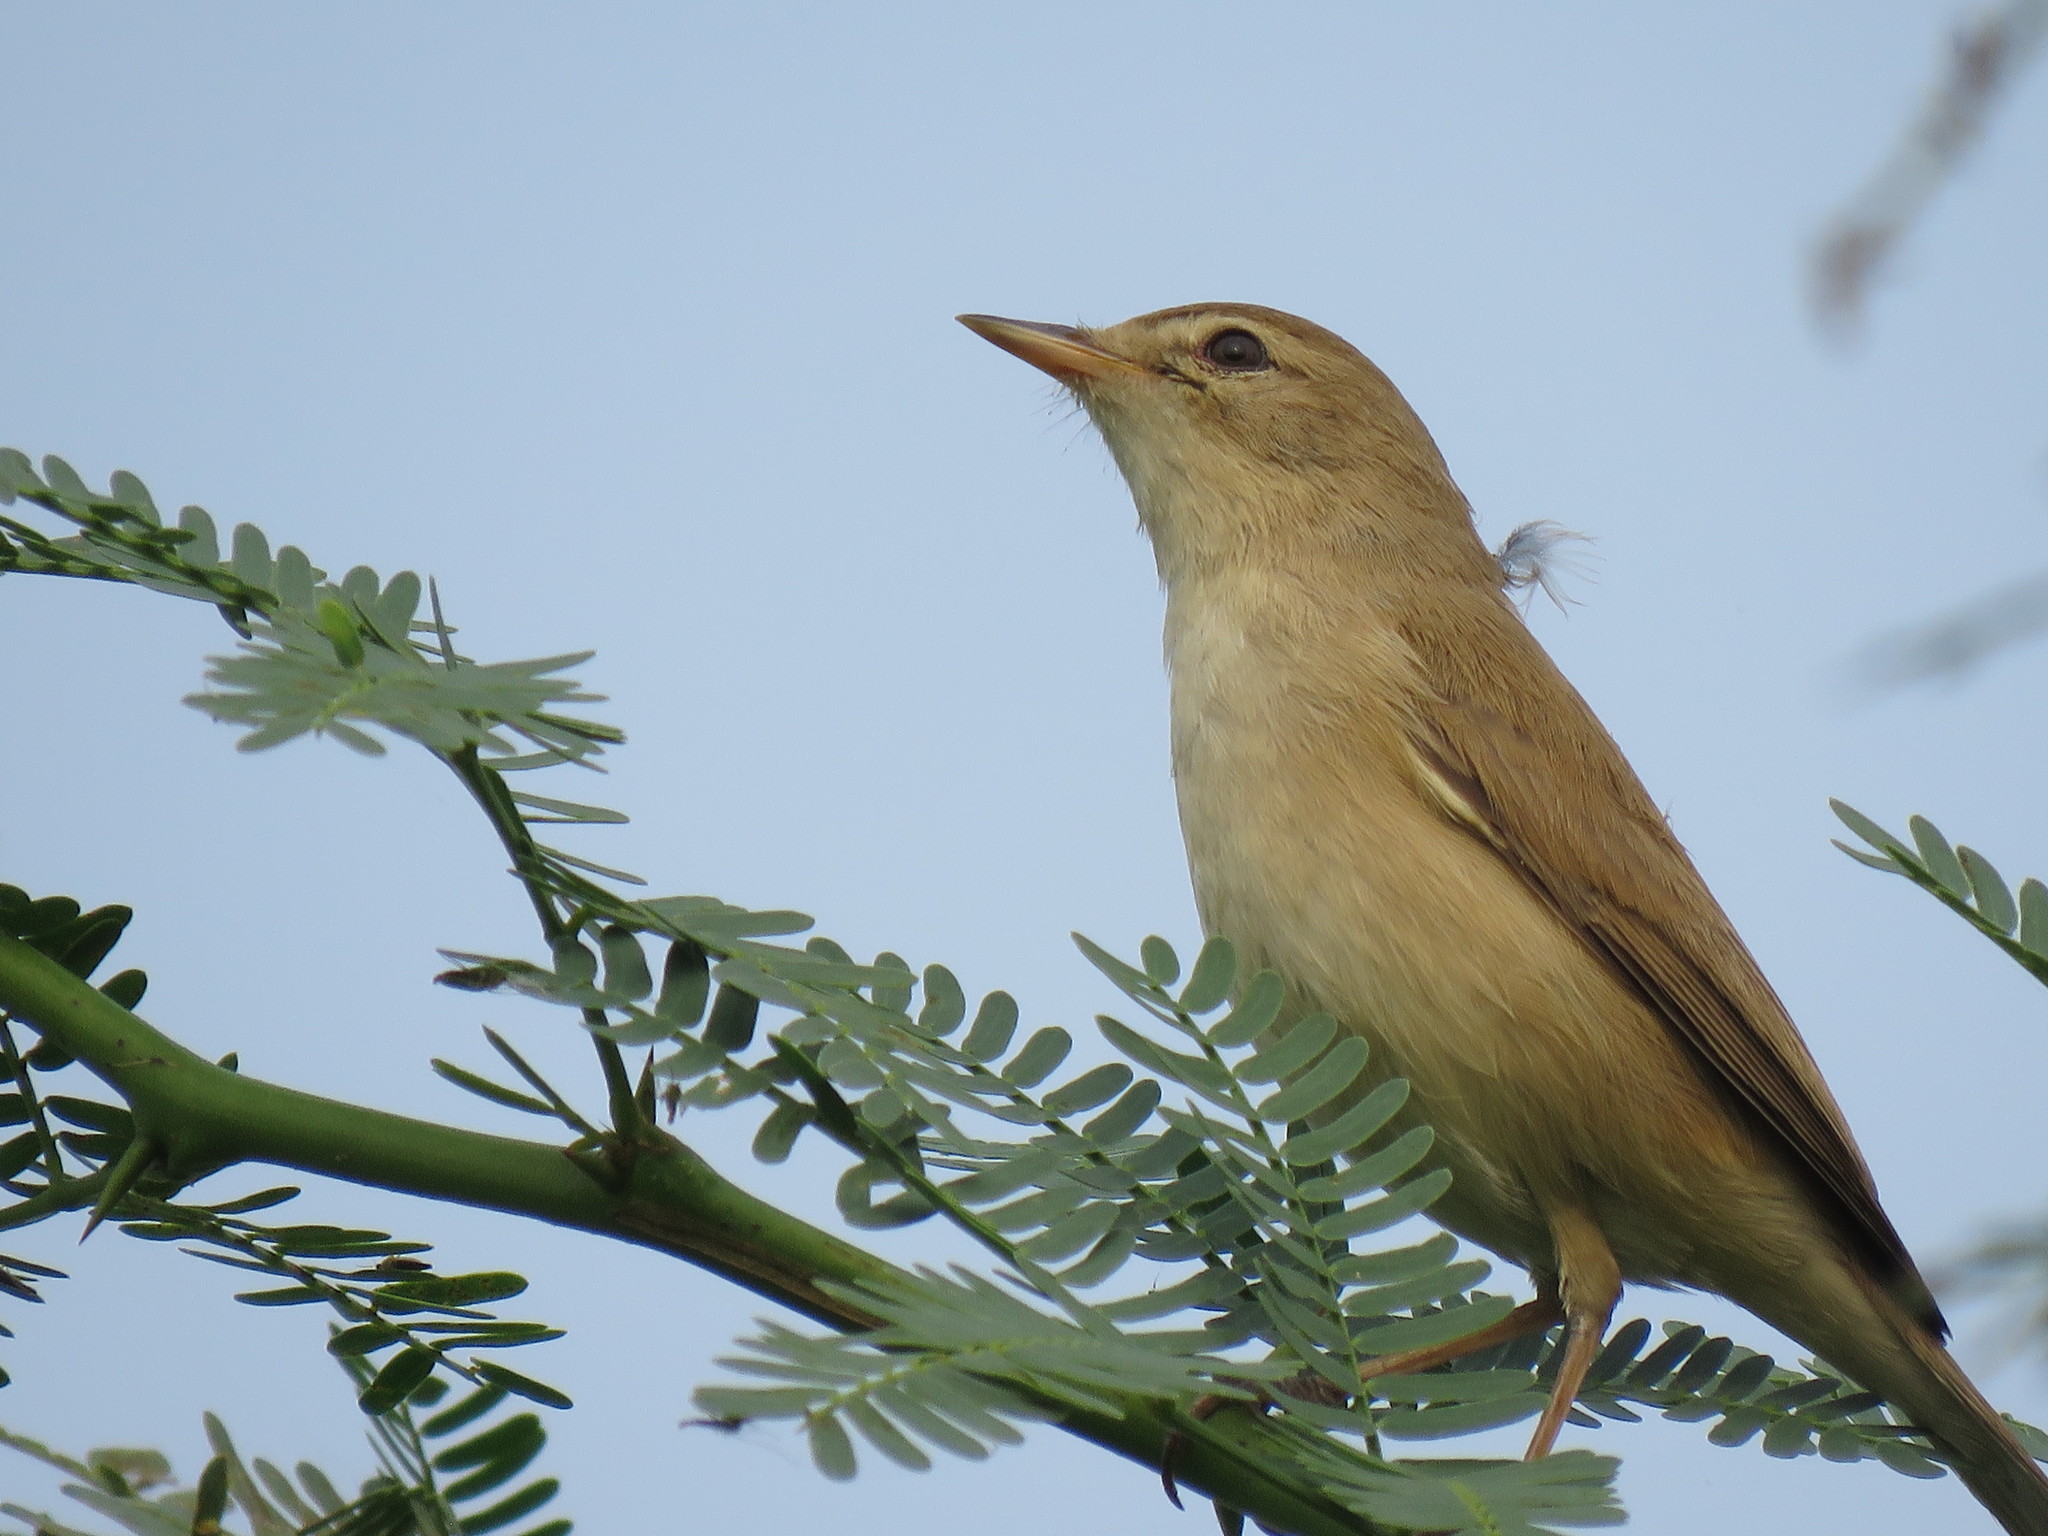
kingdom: Animalia
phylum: Chordata
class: Aves
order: Passeriformes
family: Acrocephalidae
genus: Iduna
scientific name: Iduna caligata
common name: Booted warbler
